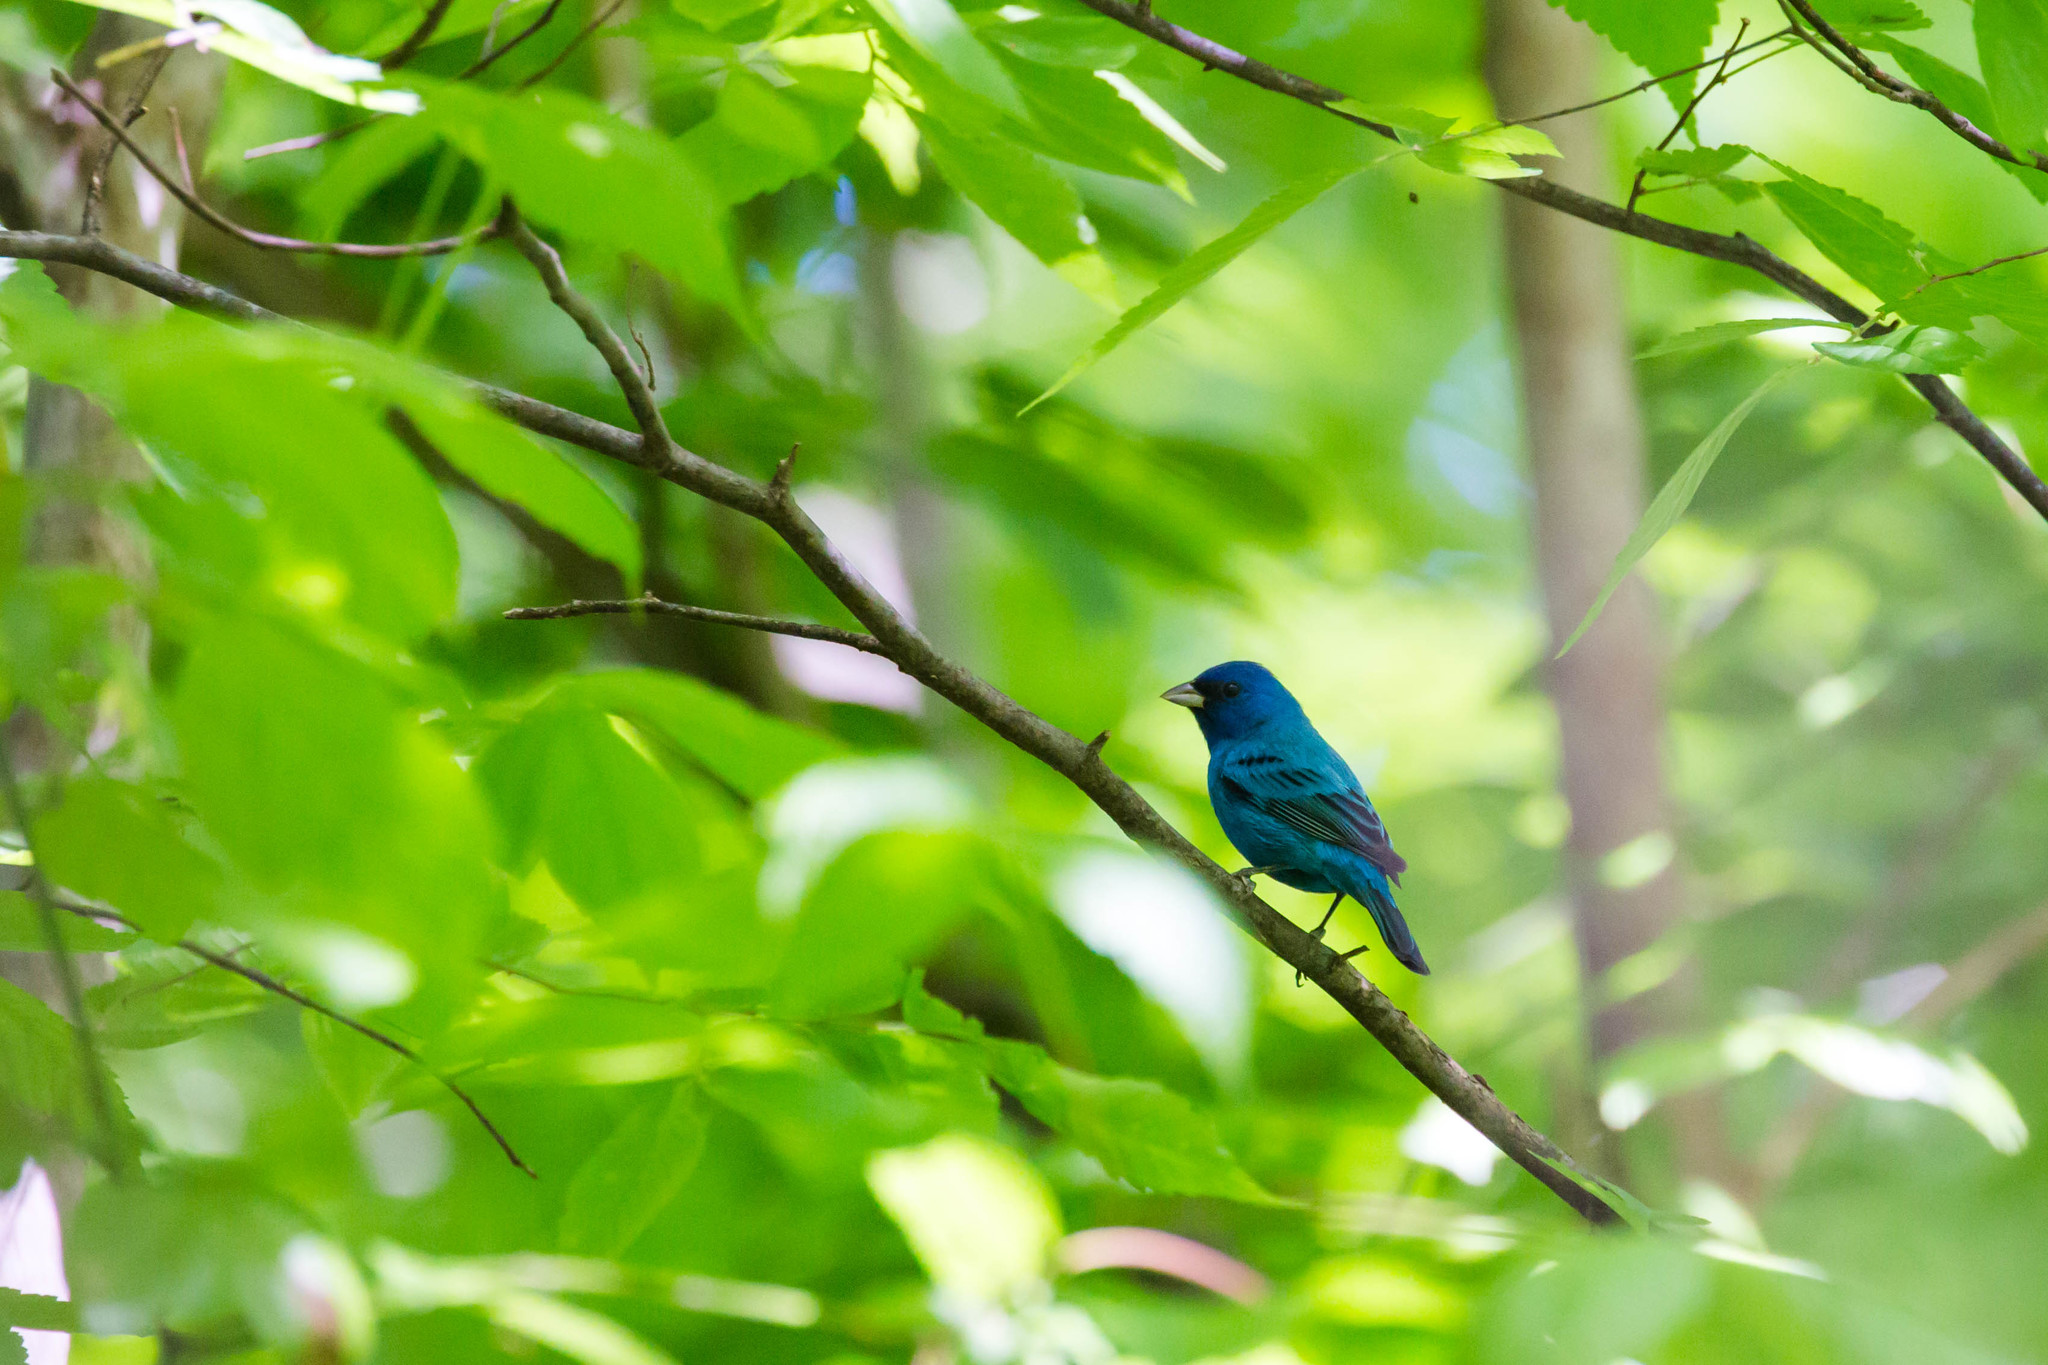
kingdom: Animalia
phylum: Chordata
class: Aves
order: Passeriformes
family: Cardinalidae
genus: Passerina
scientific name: Passerina cyanea
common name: Indigo bunting
